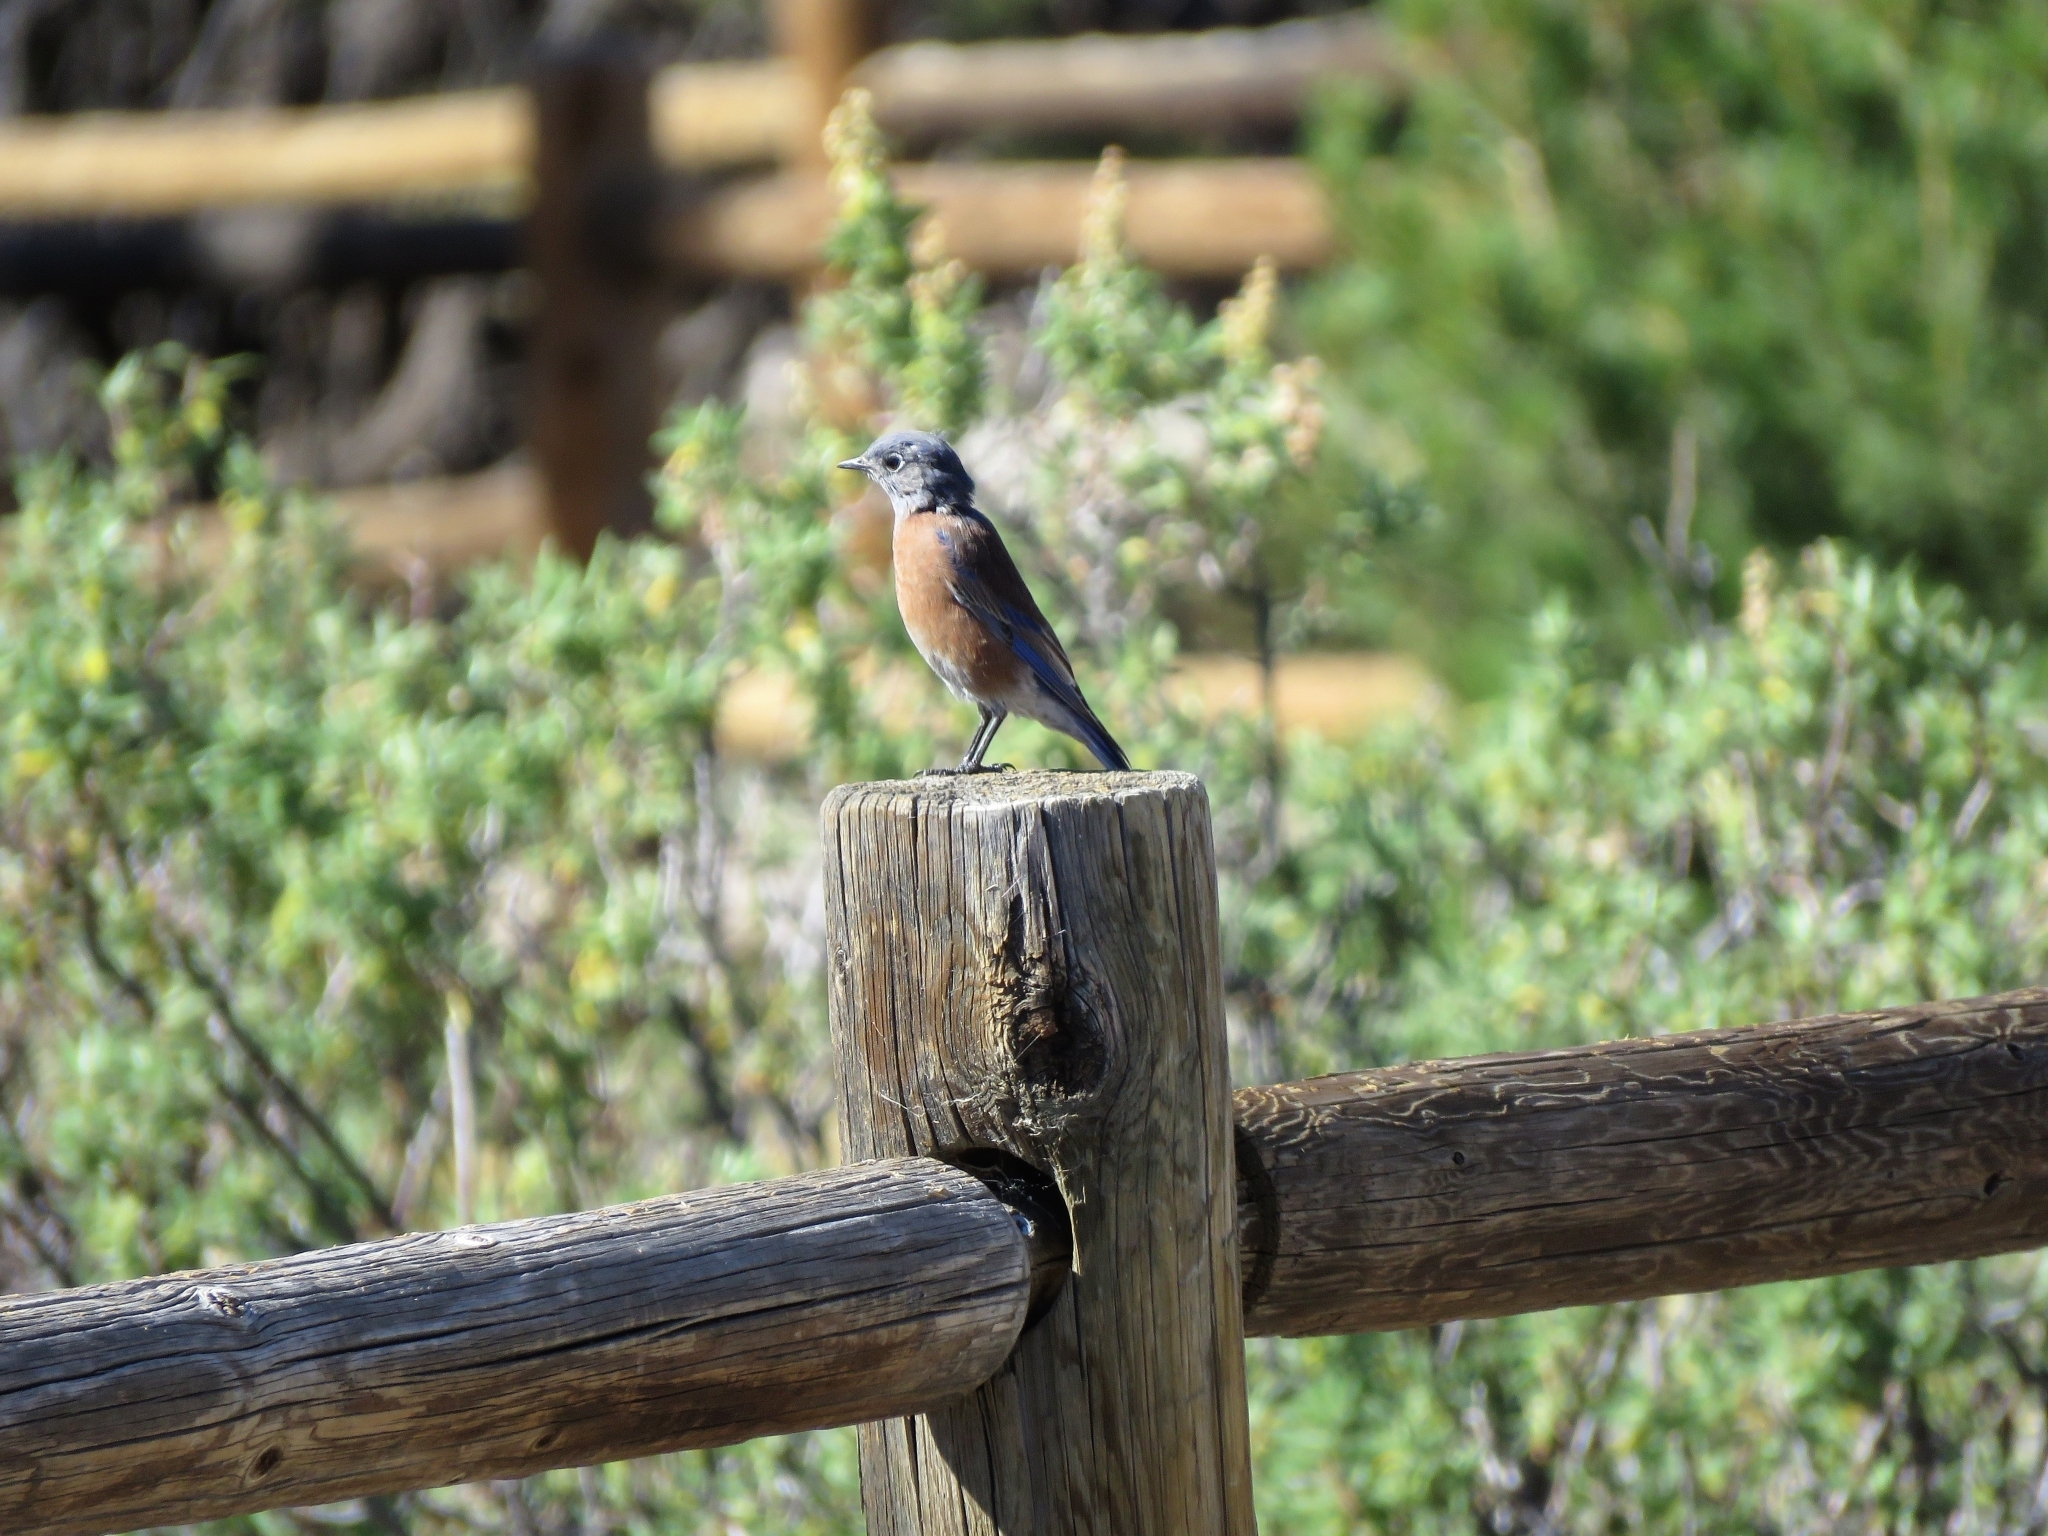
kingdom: Animalia
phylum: Chordata
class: Aves
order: Passeriformes
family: Turdidae
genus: Sialia
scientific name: Sialia mexicana
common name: Western bluebird
